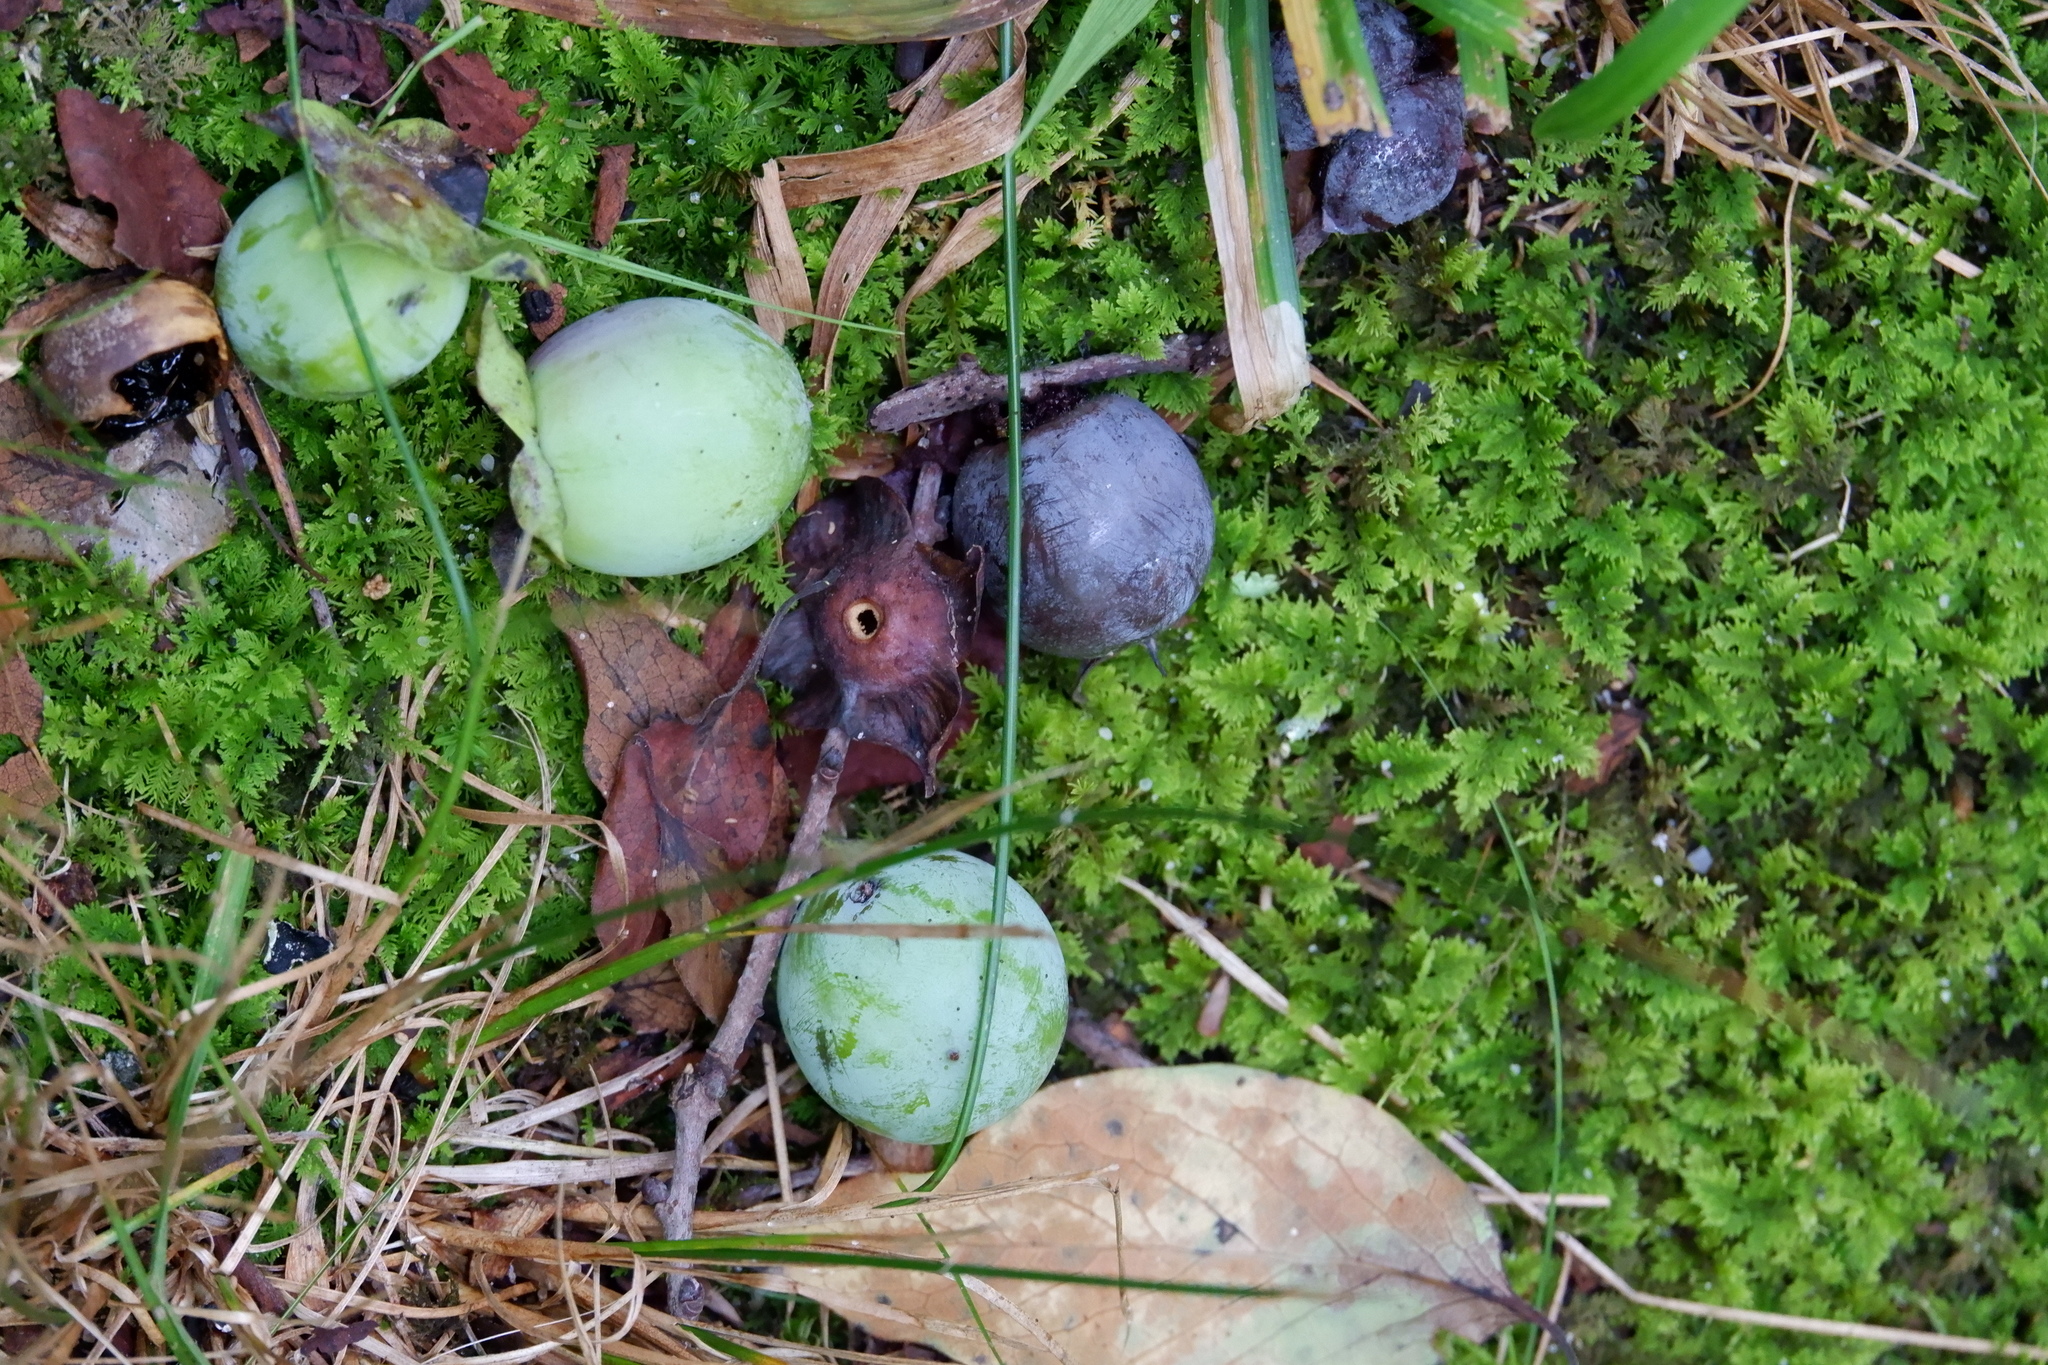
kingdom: Plantae
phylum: Tracheophyta
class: Magnoliopsida
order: Ericales
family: Ebenaceae
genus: Diospyros
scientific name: Diospyros virginiana
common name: Persimmon
